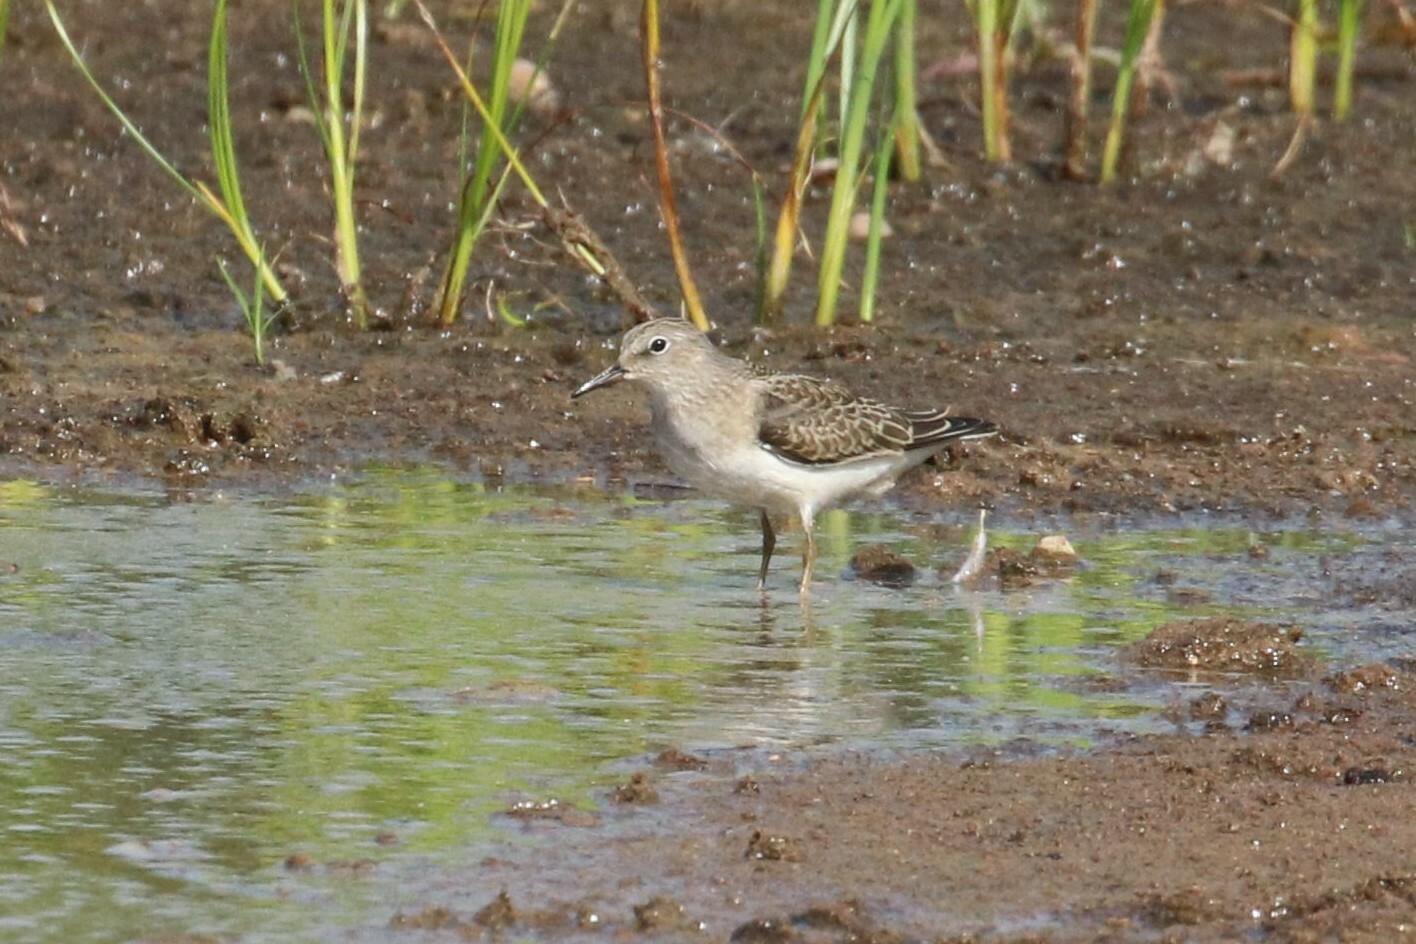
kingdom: Animalia
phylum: Chordata
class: Aves
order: Charadriiformes
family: Scolopacidae
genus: Calidris
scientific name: Calidris temminckii
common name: Temminck's stint
